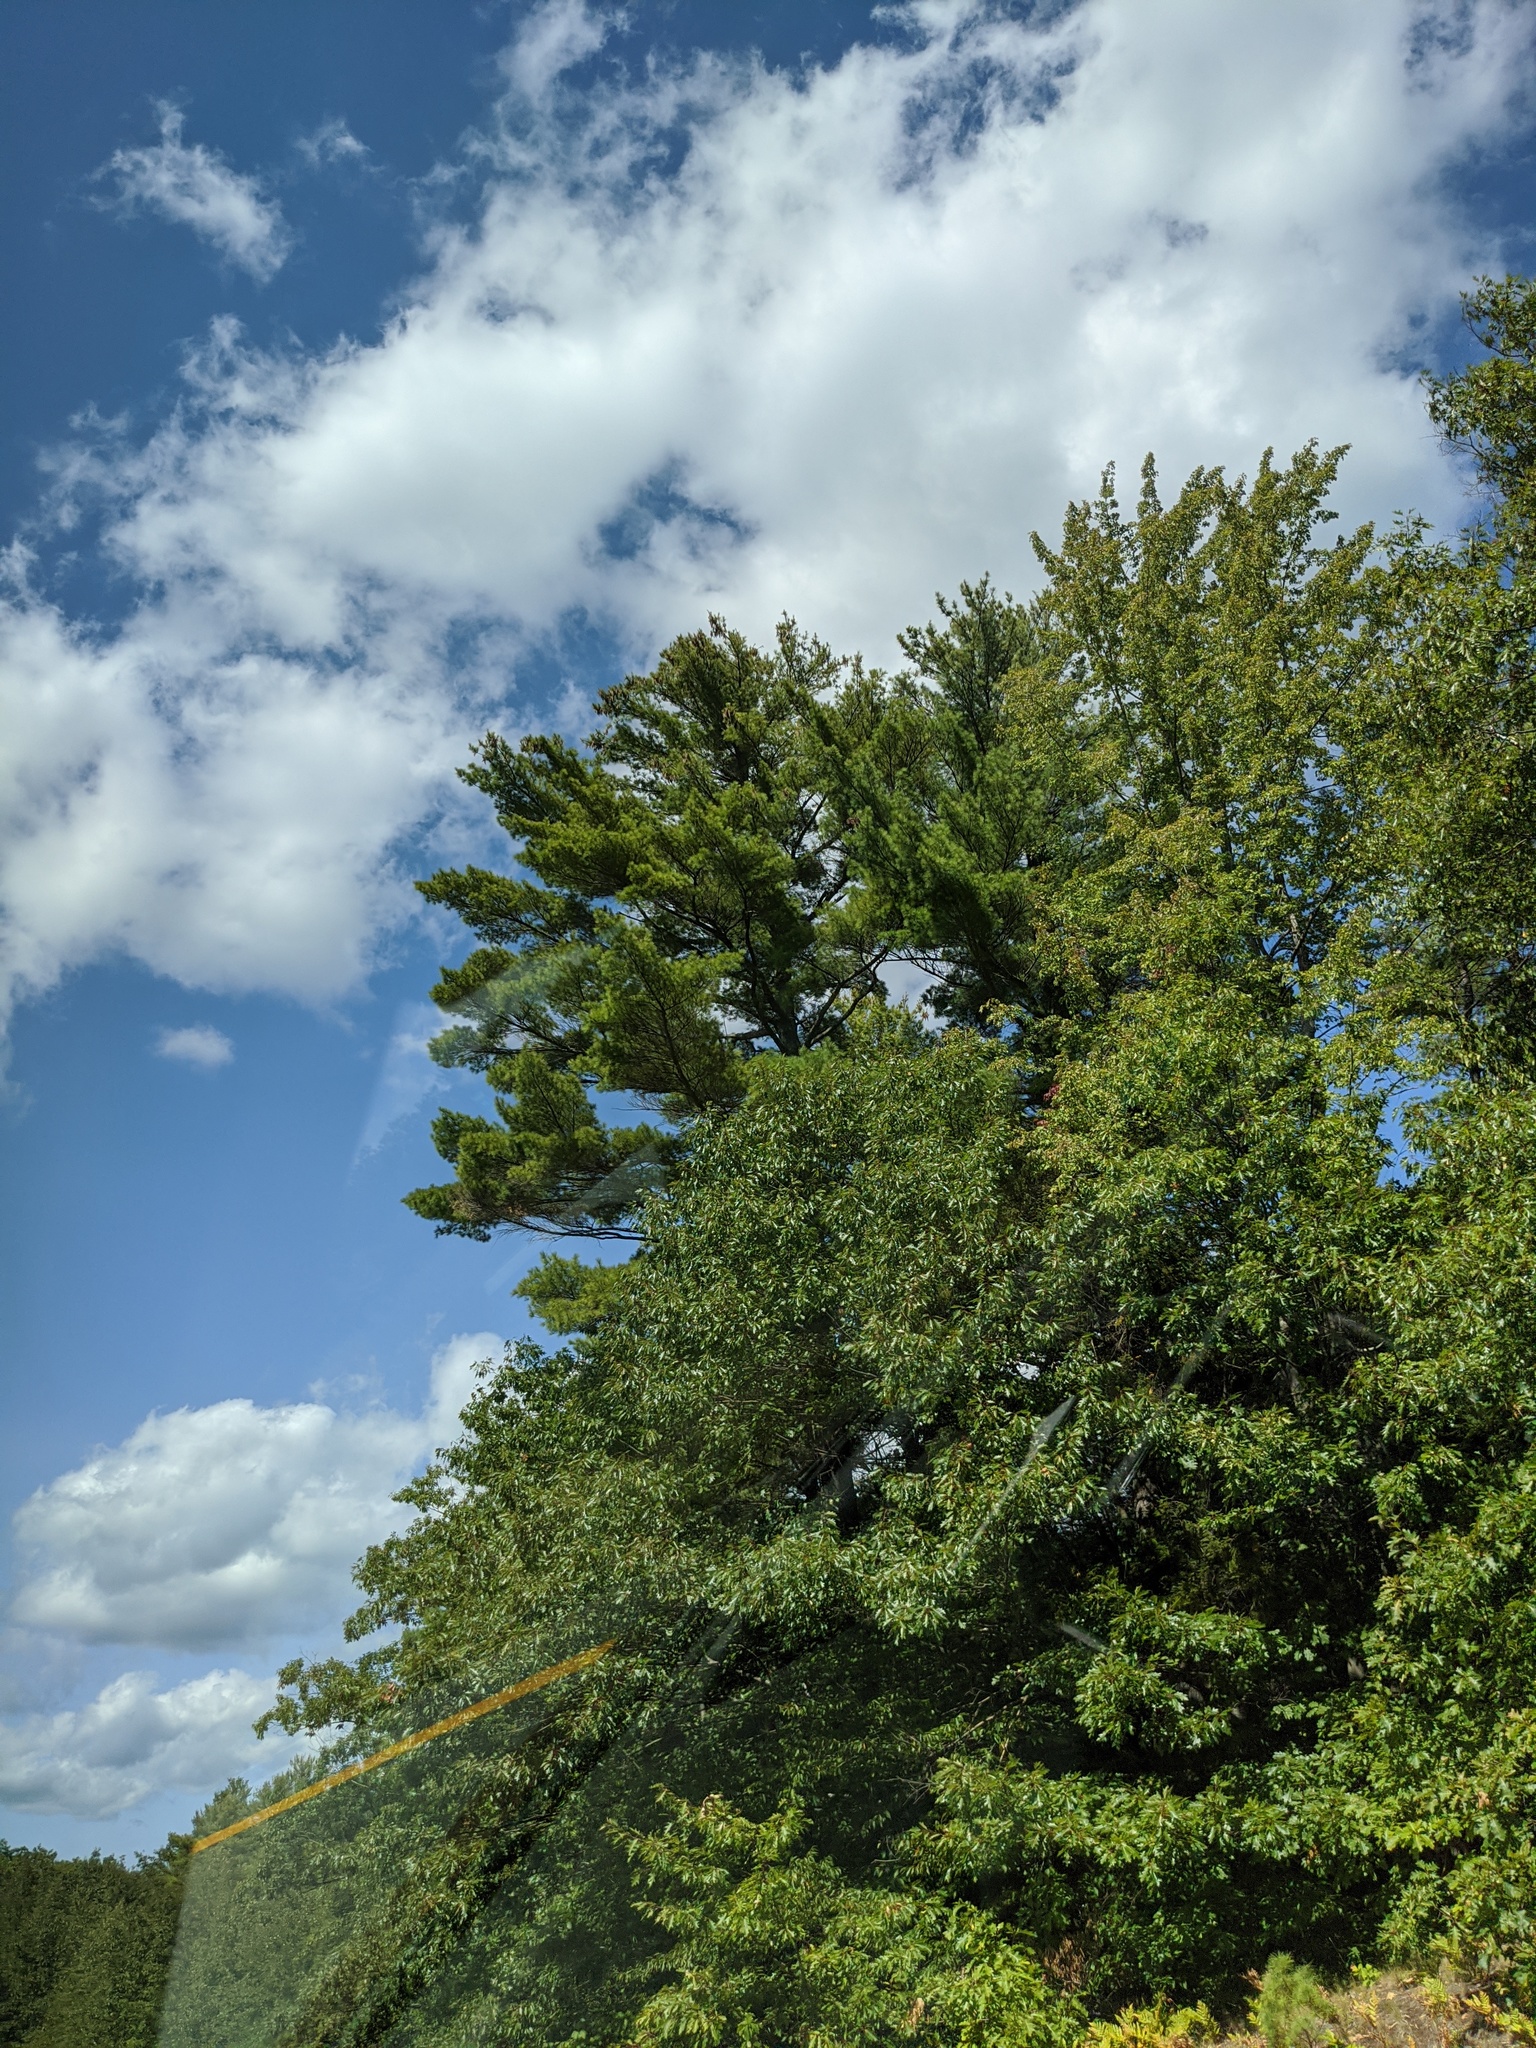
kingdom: Plantae
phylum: Tracheophyta
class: Pinopsida
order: Pinales
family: Pinaceae
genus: Pinus
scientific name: Pinus strobus
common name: Weymouth pine
